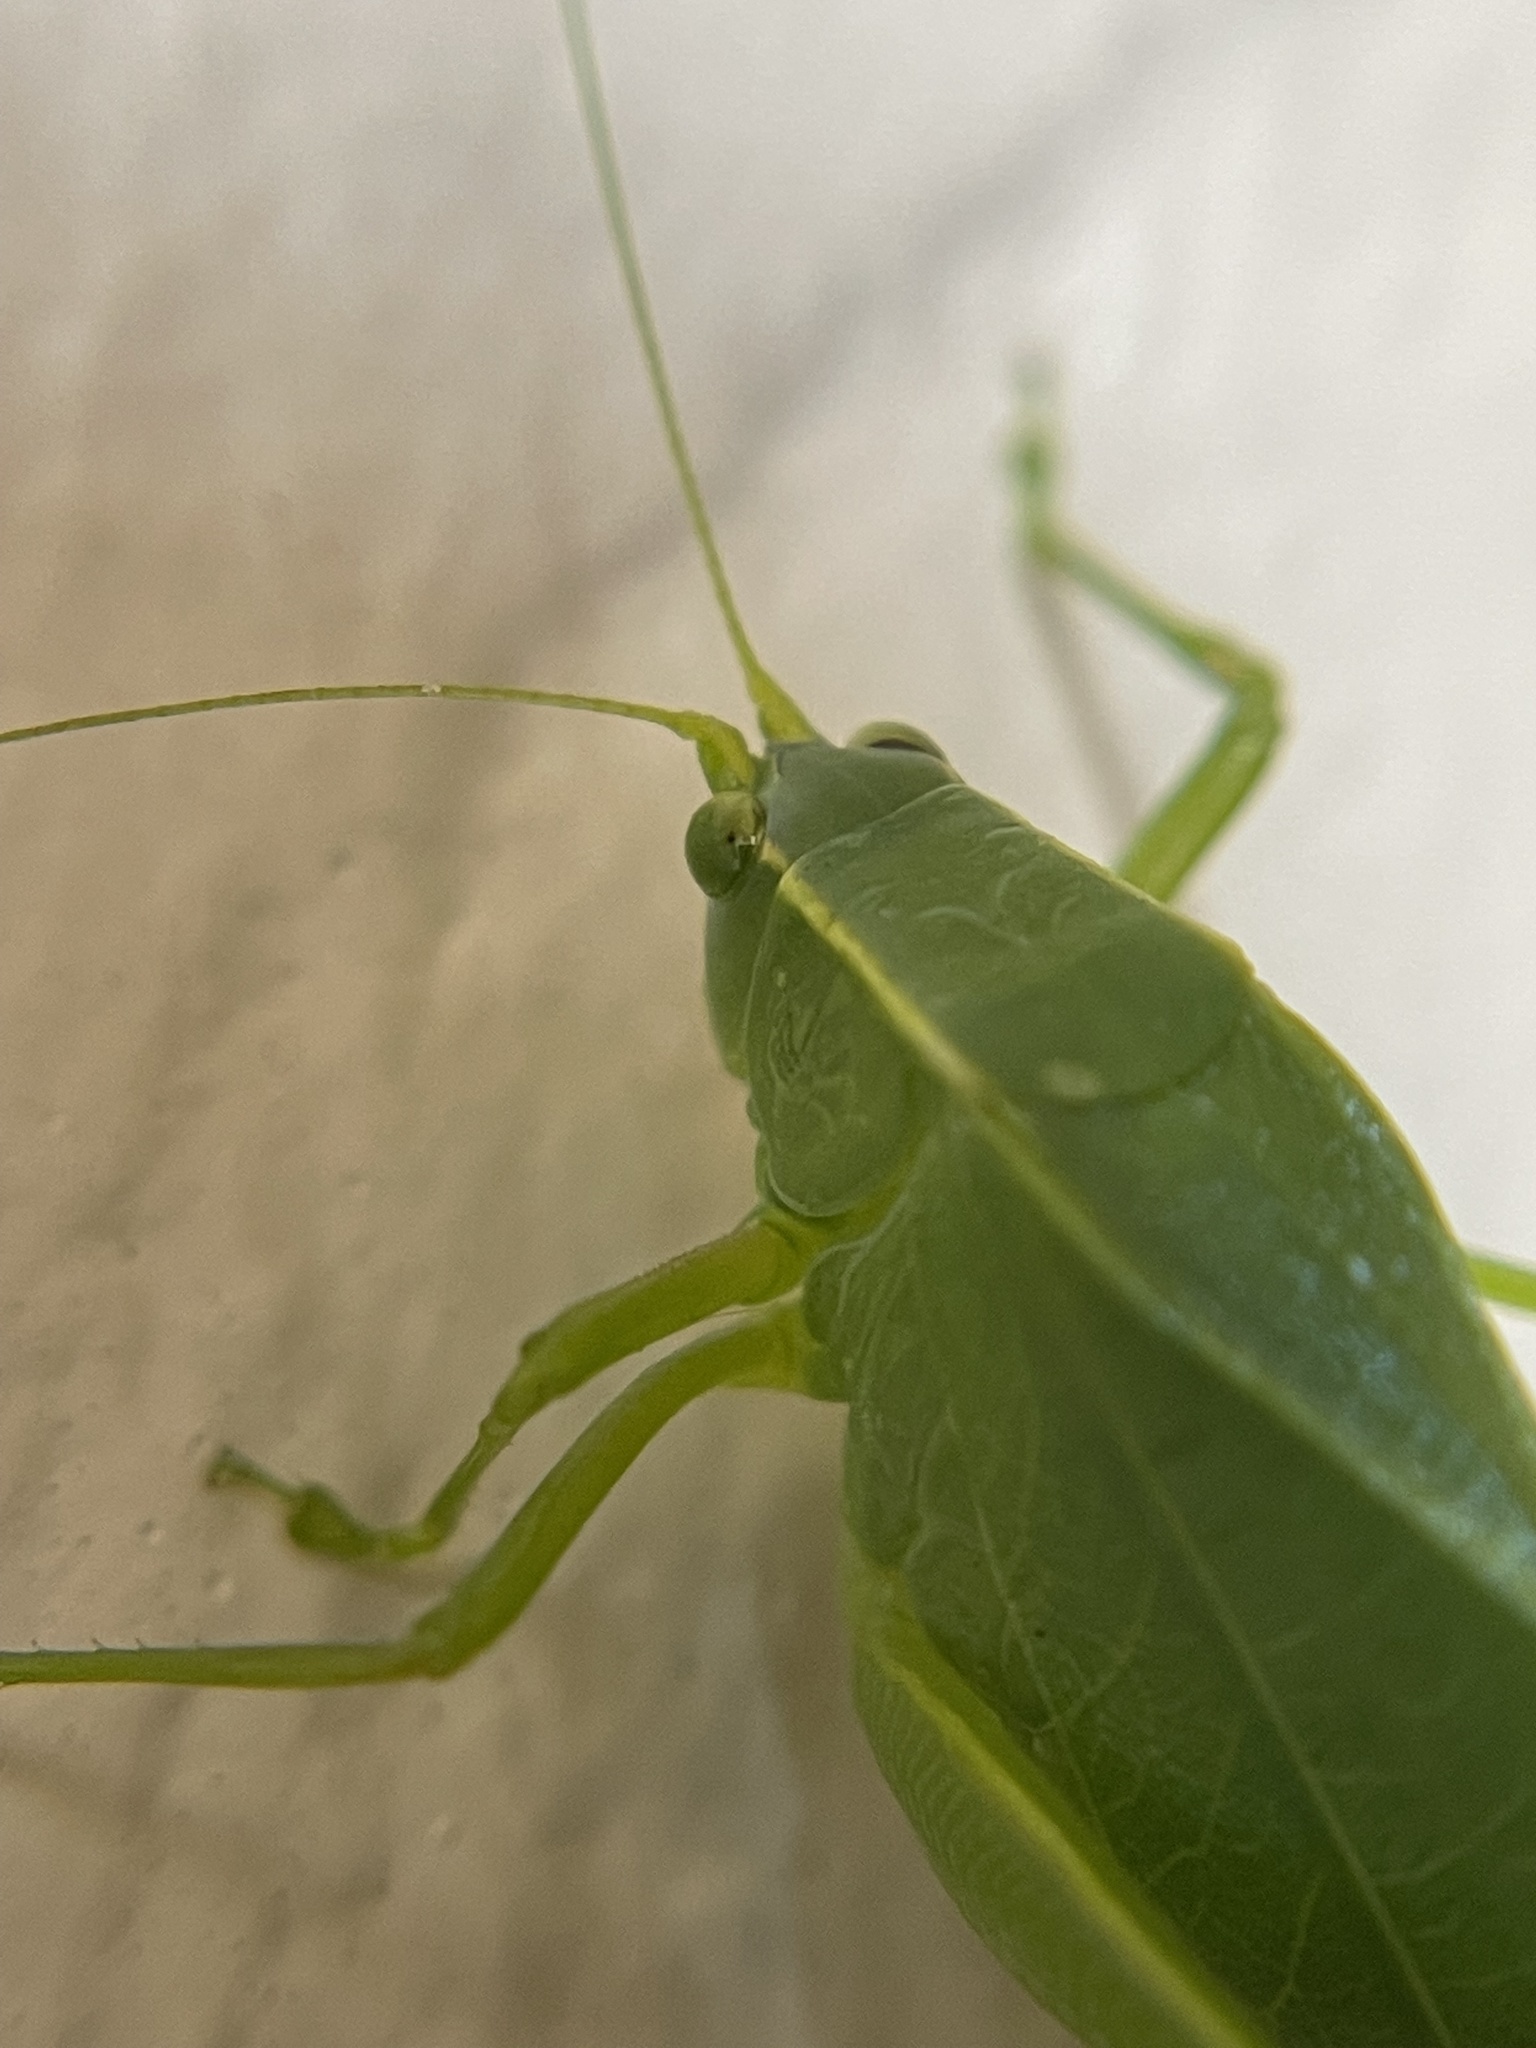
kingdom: Animalia
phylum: Arthropoda
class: Insecta
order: Orthoptera
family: Tettigoniidae
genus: Turpilia
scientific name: Turpilia rostrata
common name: Narrow-beaked katydid
